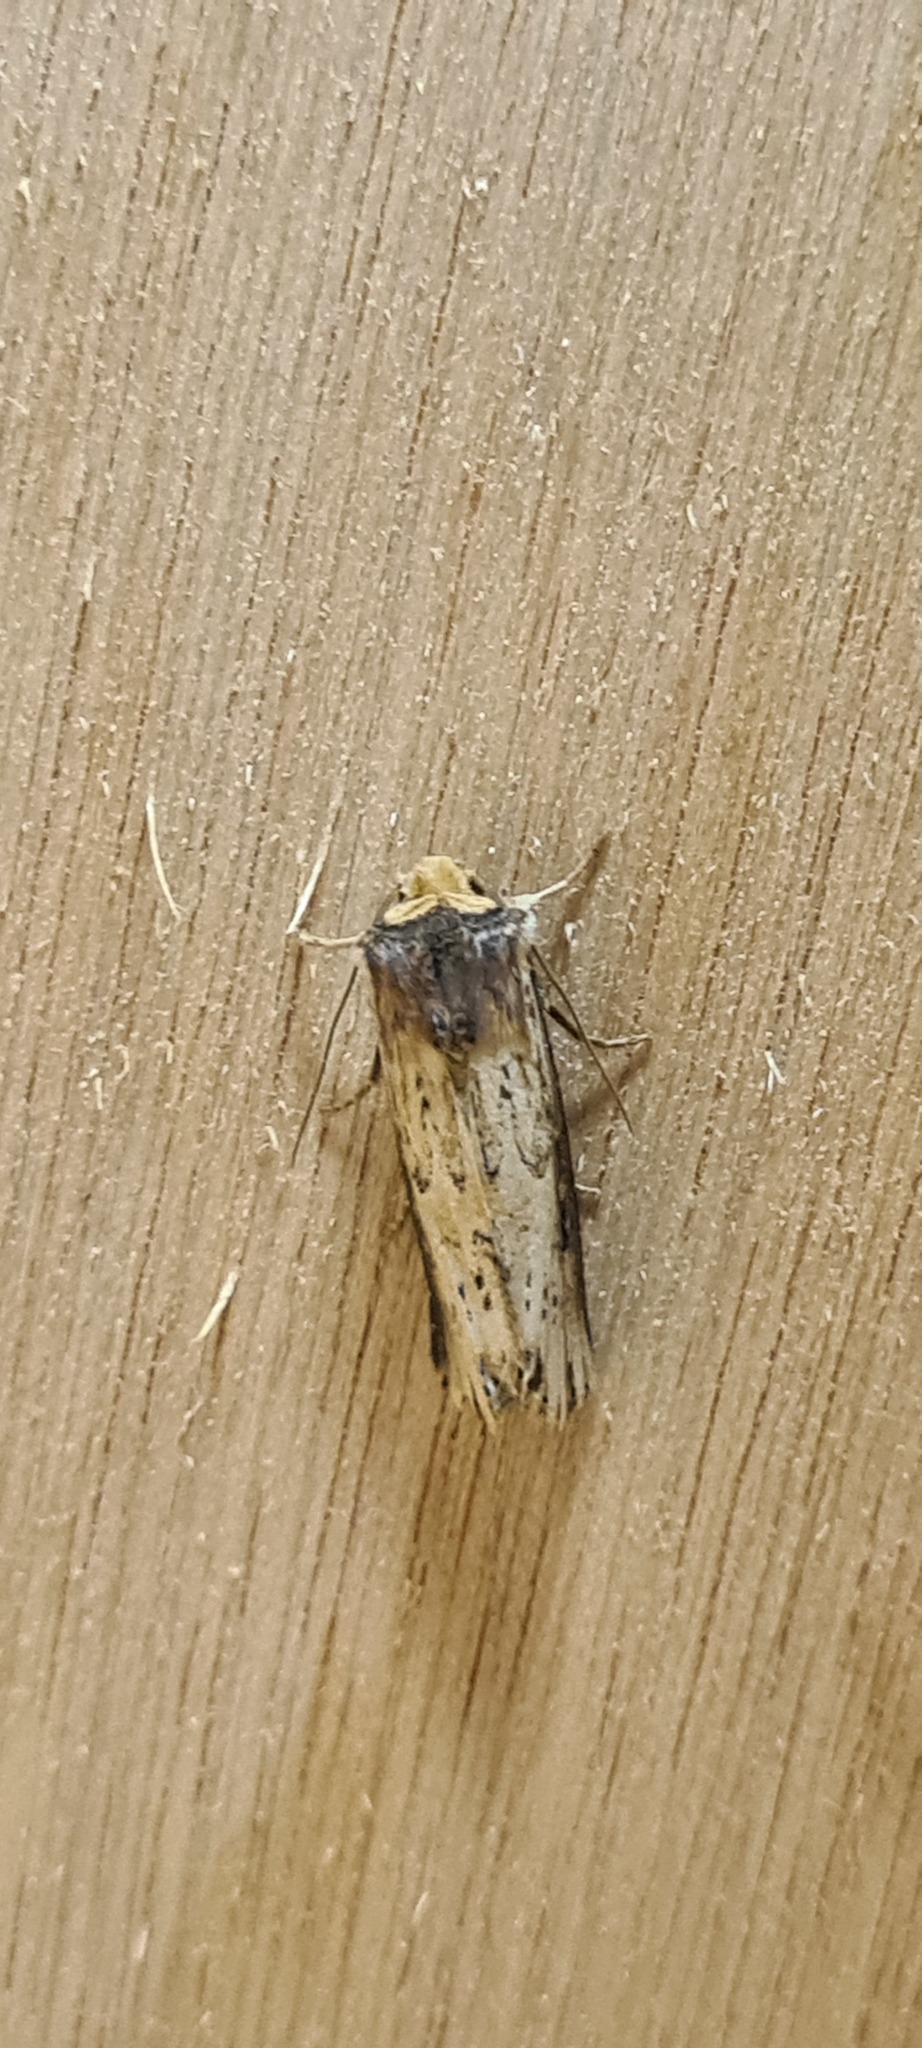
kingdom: Animalia
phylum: Arthropoda
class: Insecta
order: Lepidoptera
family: Noctuidae
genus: Axylia
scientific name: Axylia putris
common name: Flame
